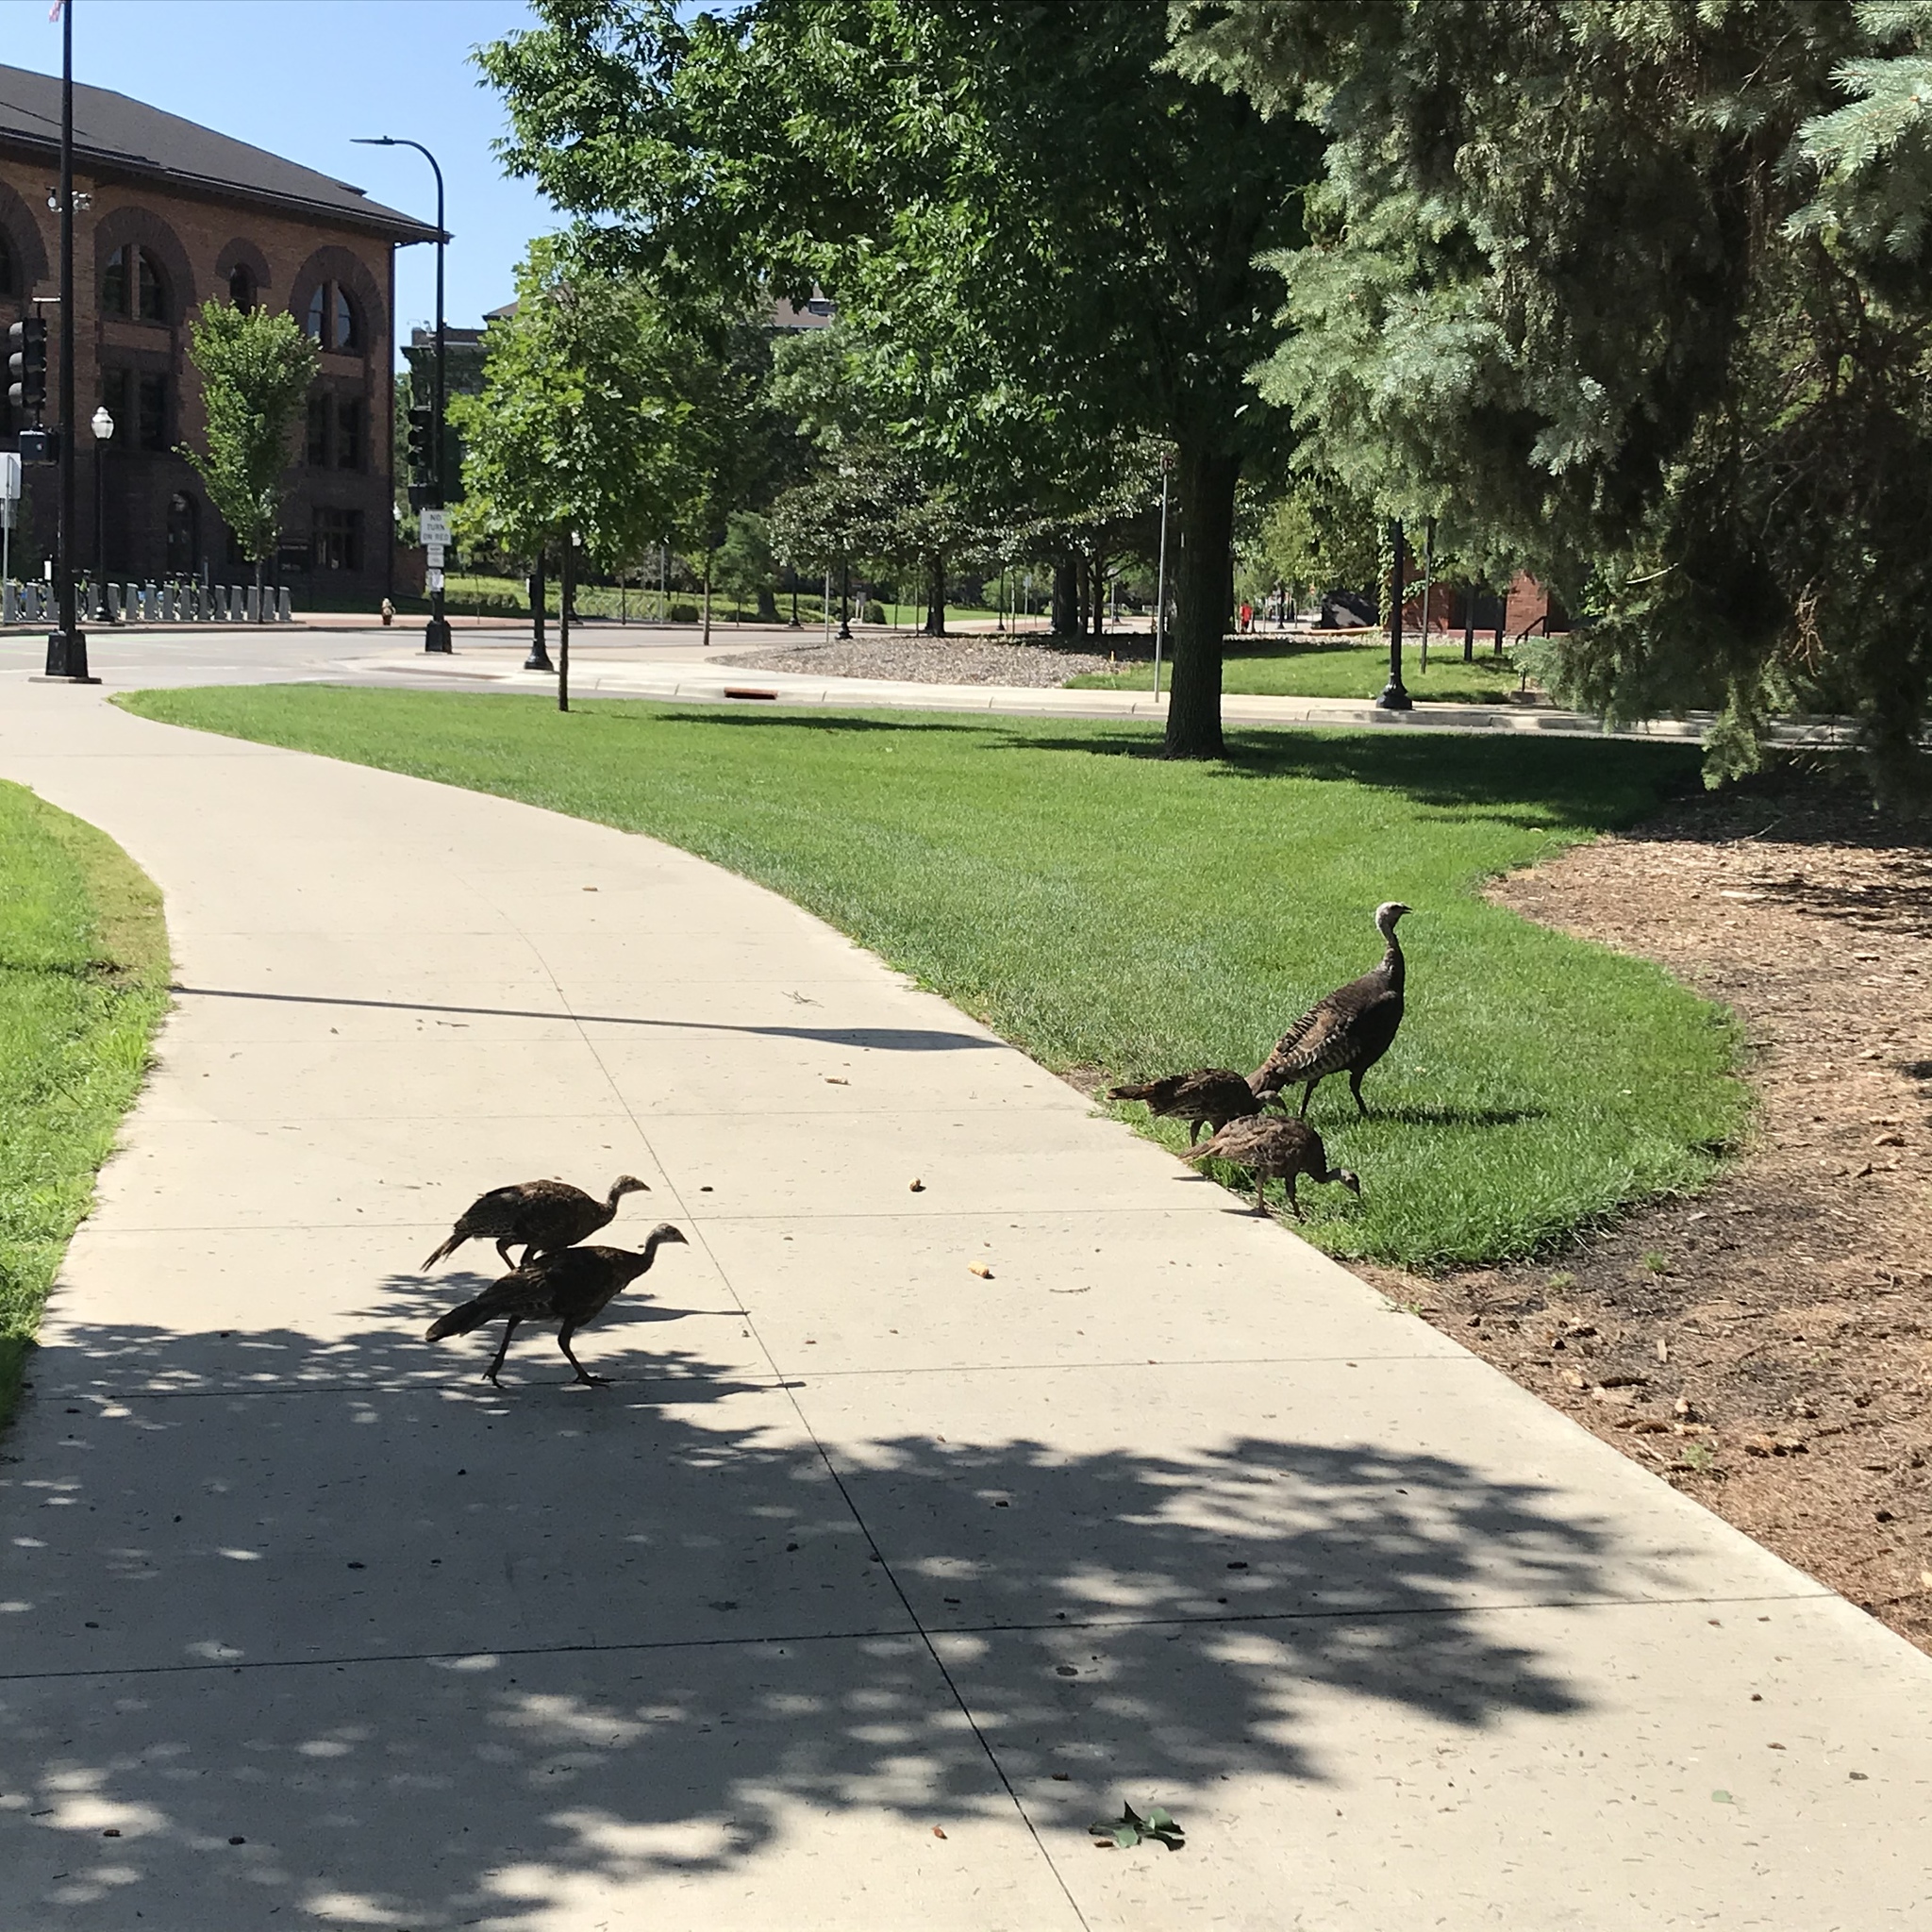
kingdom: Animalia
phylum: Chordata
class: Aves
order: Galliformes
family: Phasianidae
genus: Meleagris
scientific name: Meleagris gallopavo
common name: Wild turkey
